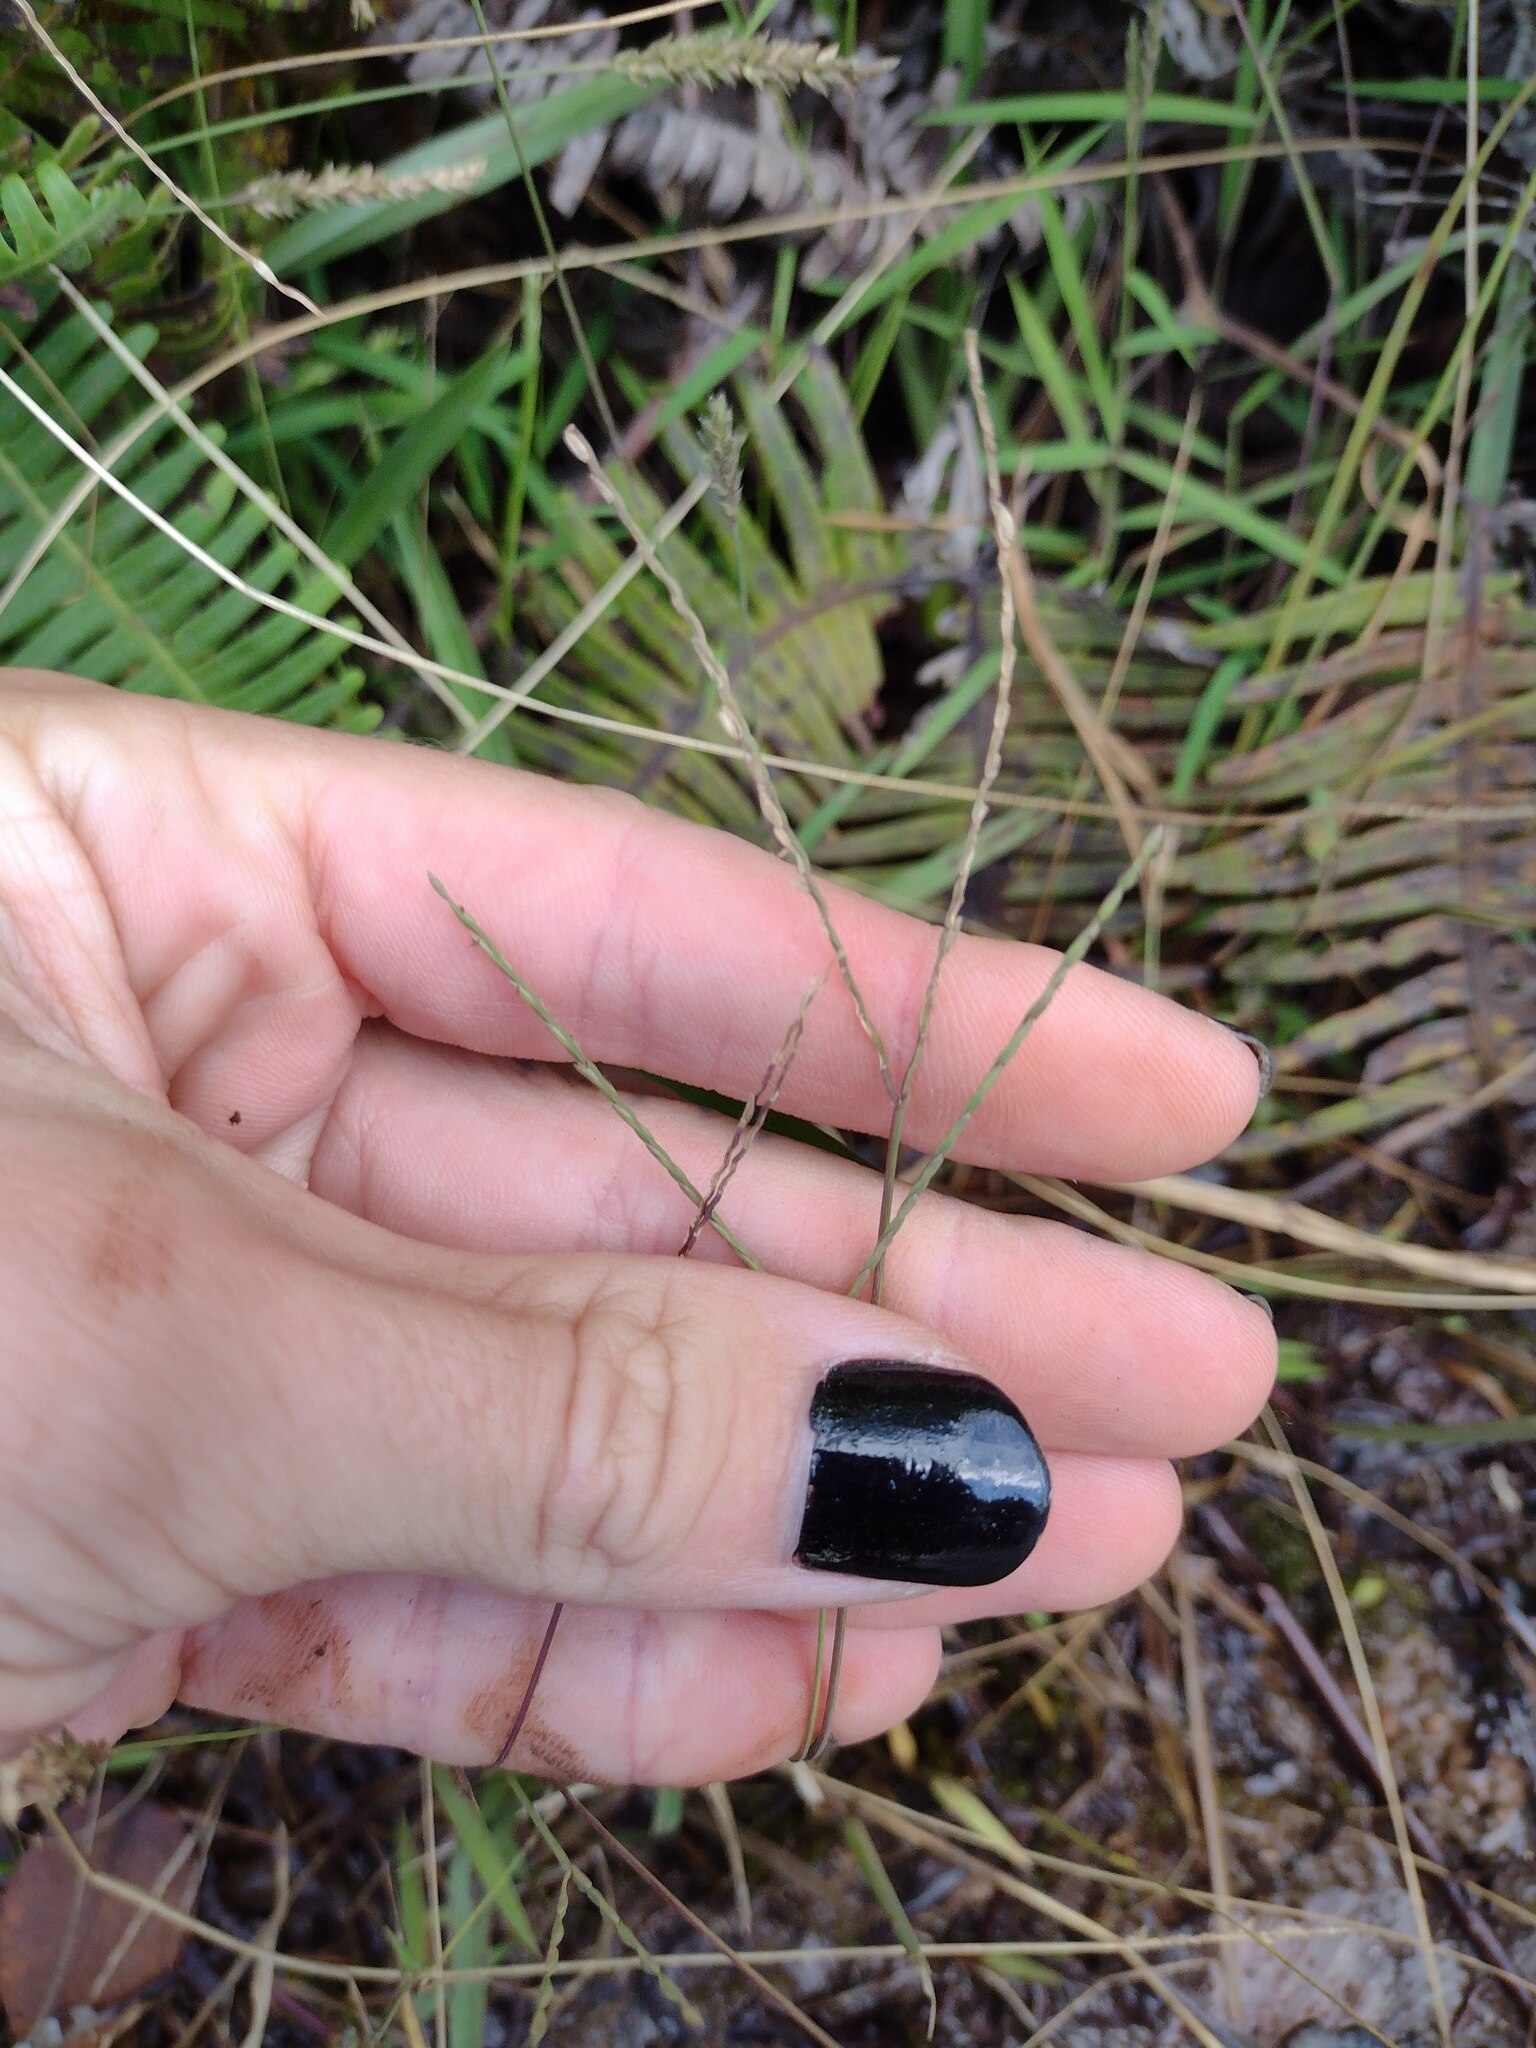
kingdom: Plantae
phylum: Tracheophyta
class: Liliopsida
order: Poales
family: Poaceae
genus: Axonopus
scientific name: Axonopus fissifolius
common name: Common carpetgrass
